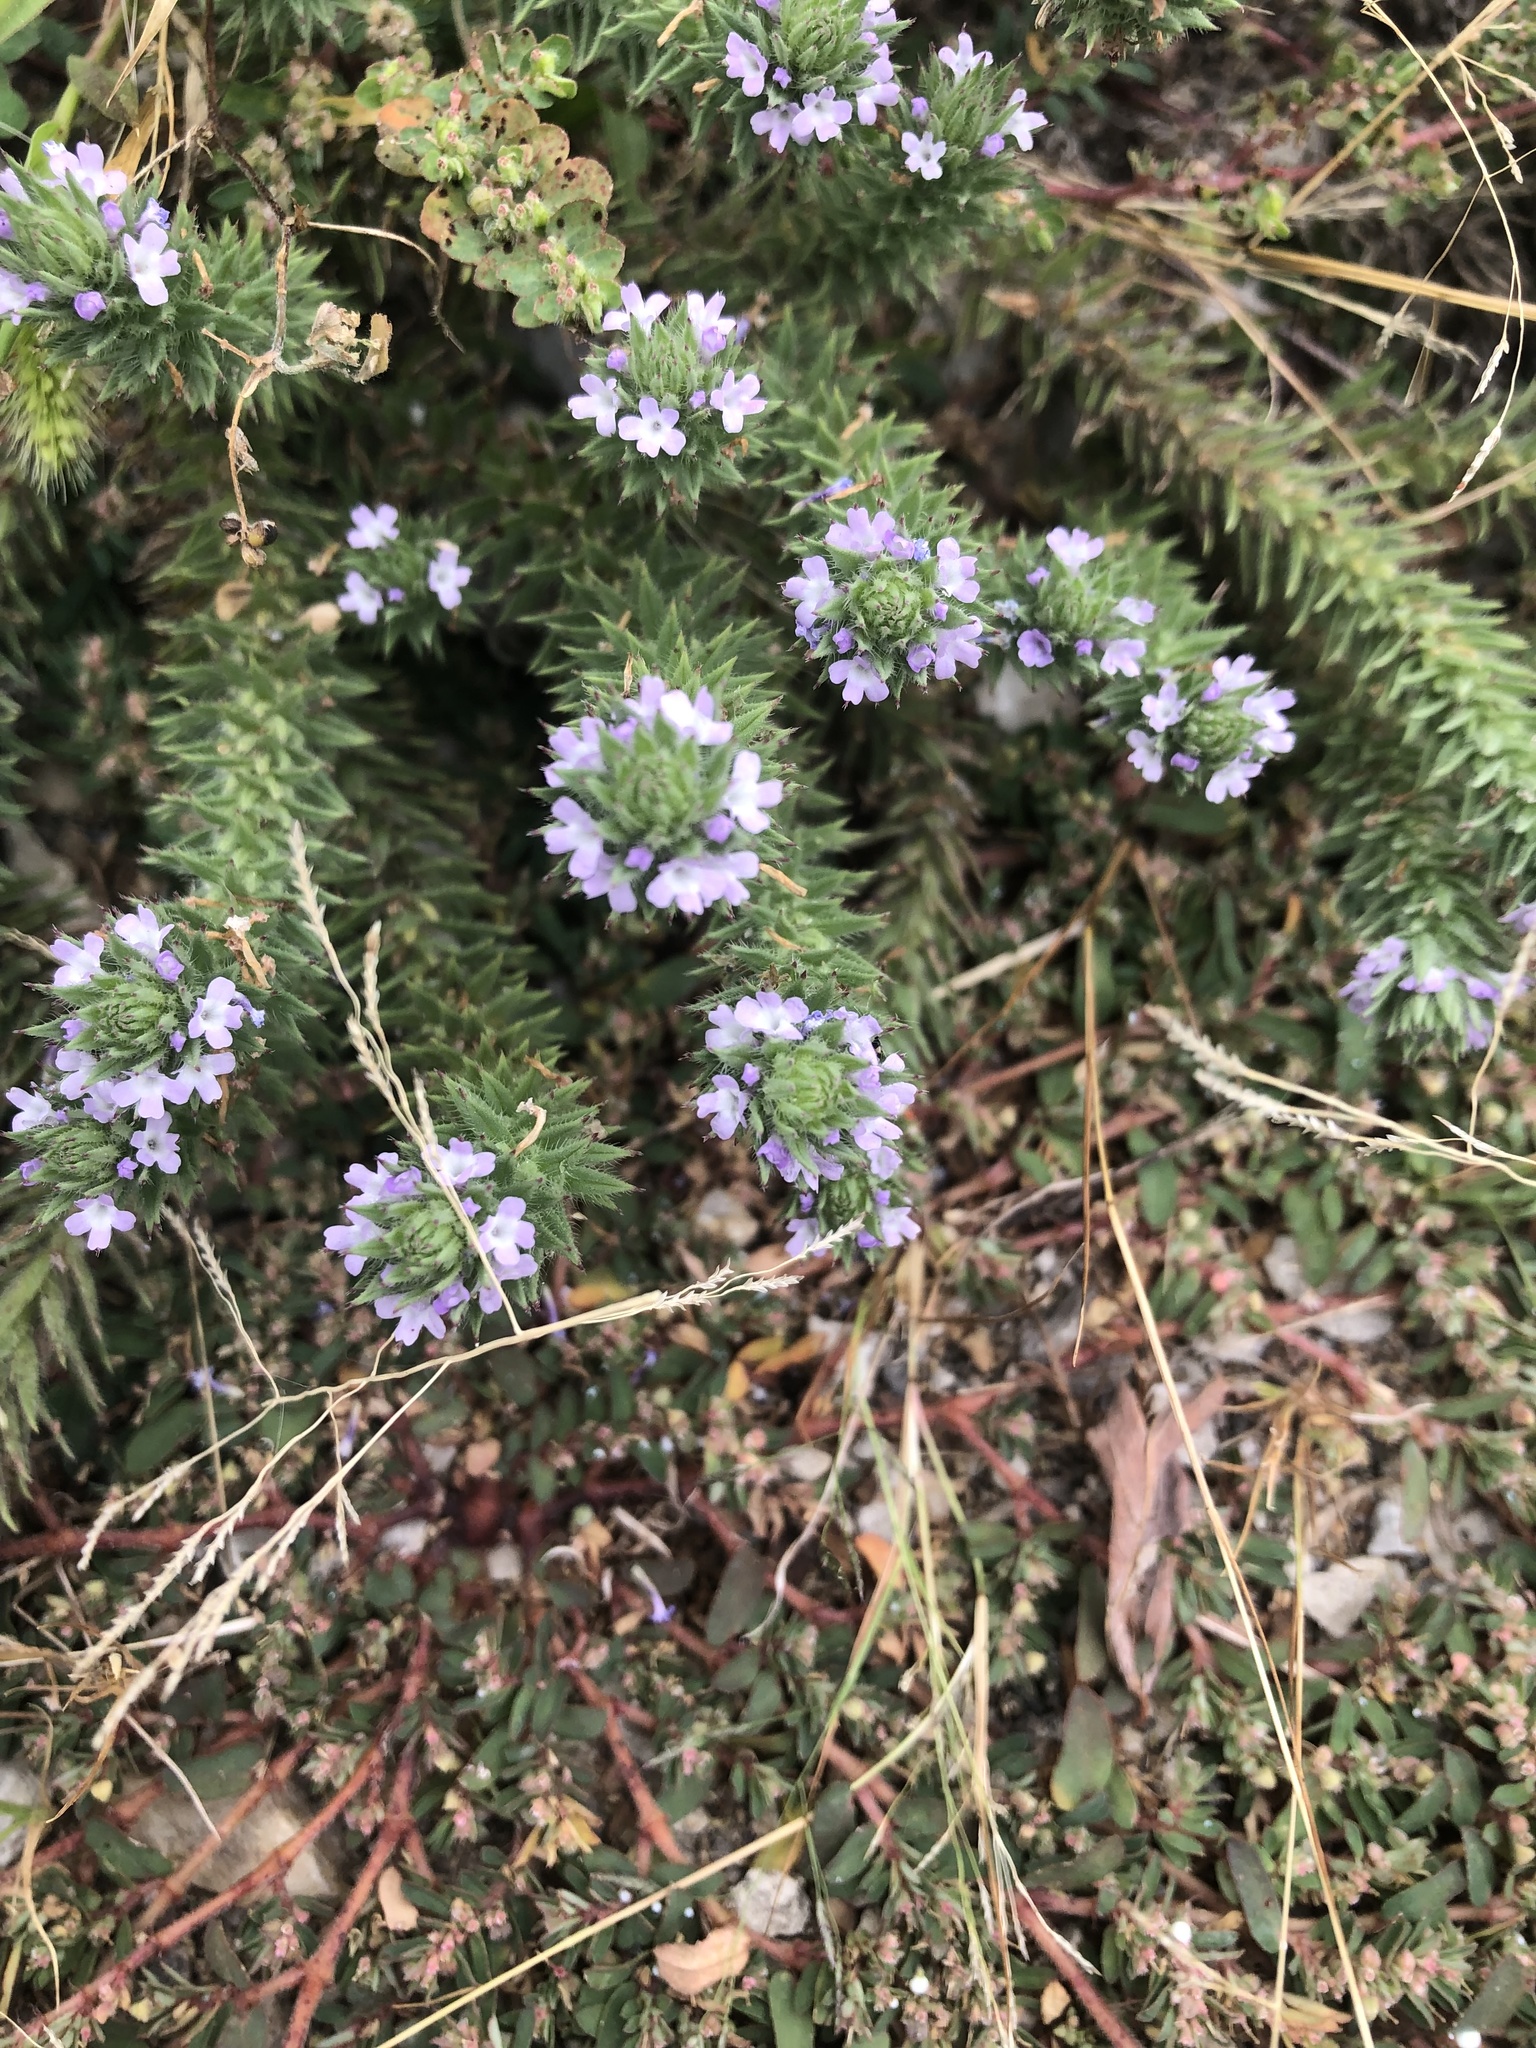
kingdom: Plantae
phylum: Tracheophyta
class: Magnoliopsida
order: Lamiales
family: Verbenaceae
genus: Verbena
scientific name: Verbena bracteata
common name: Bracted vervain
